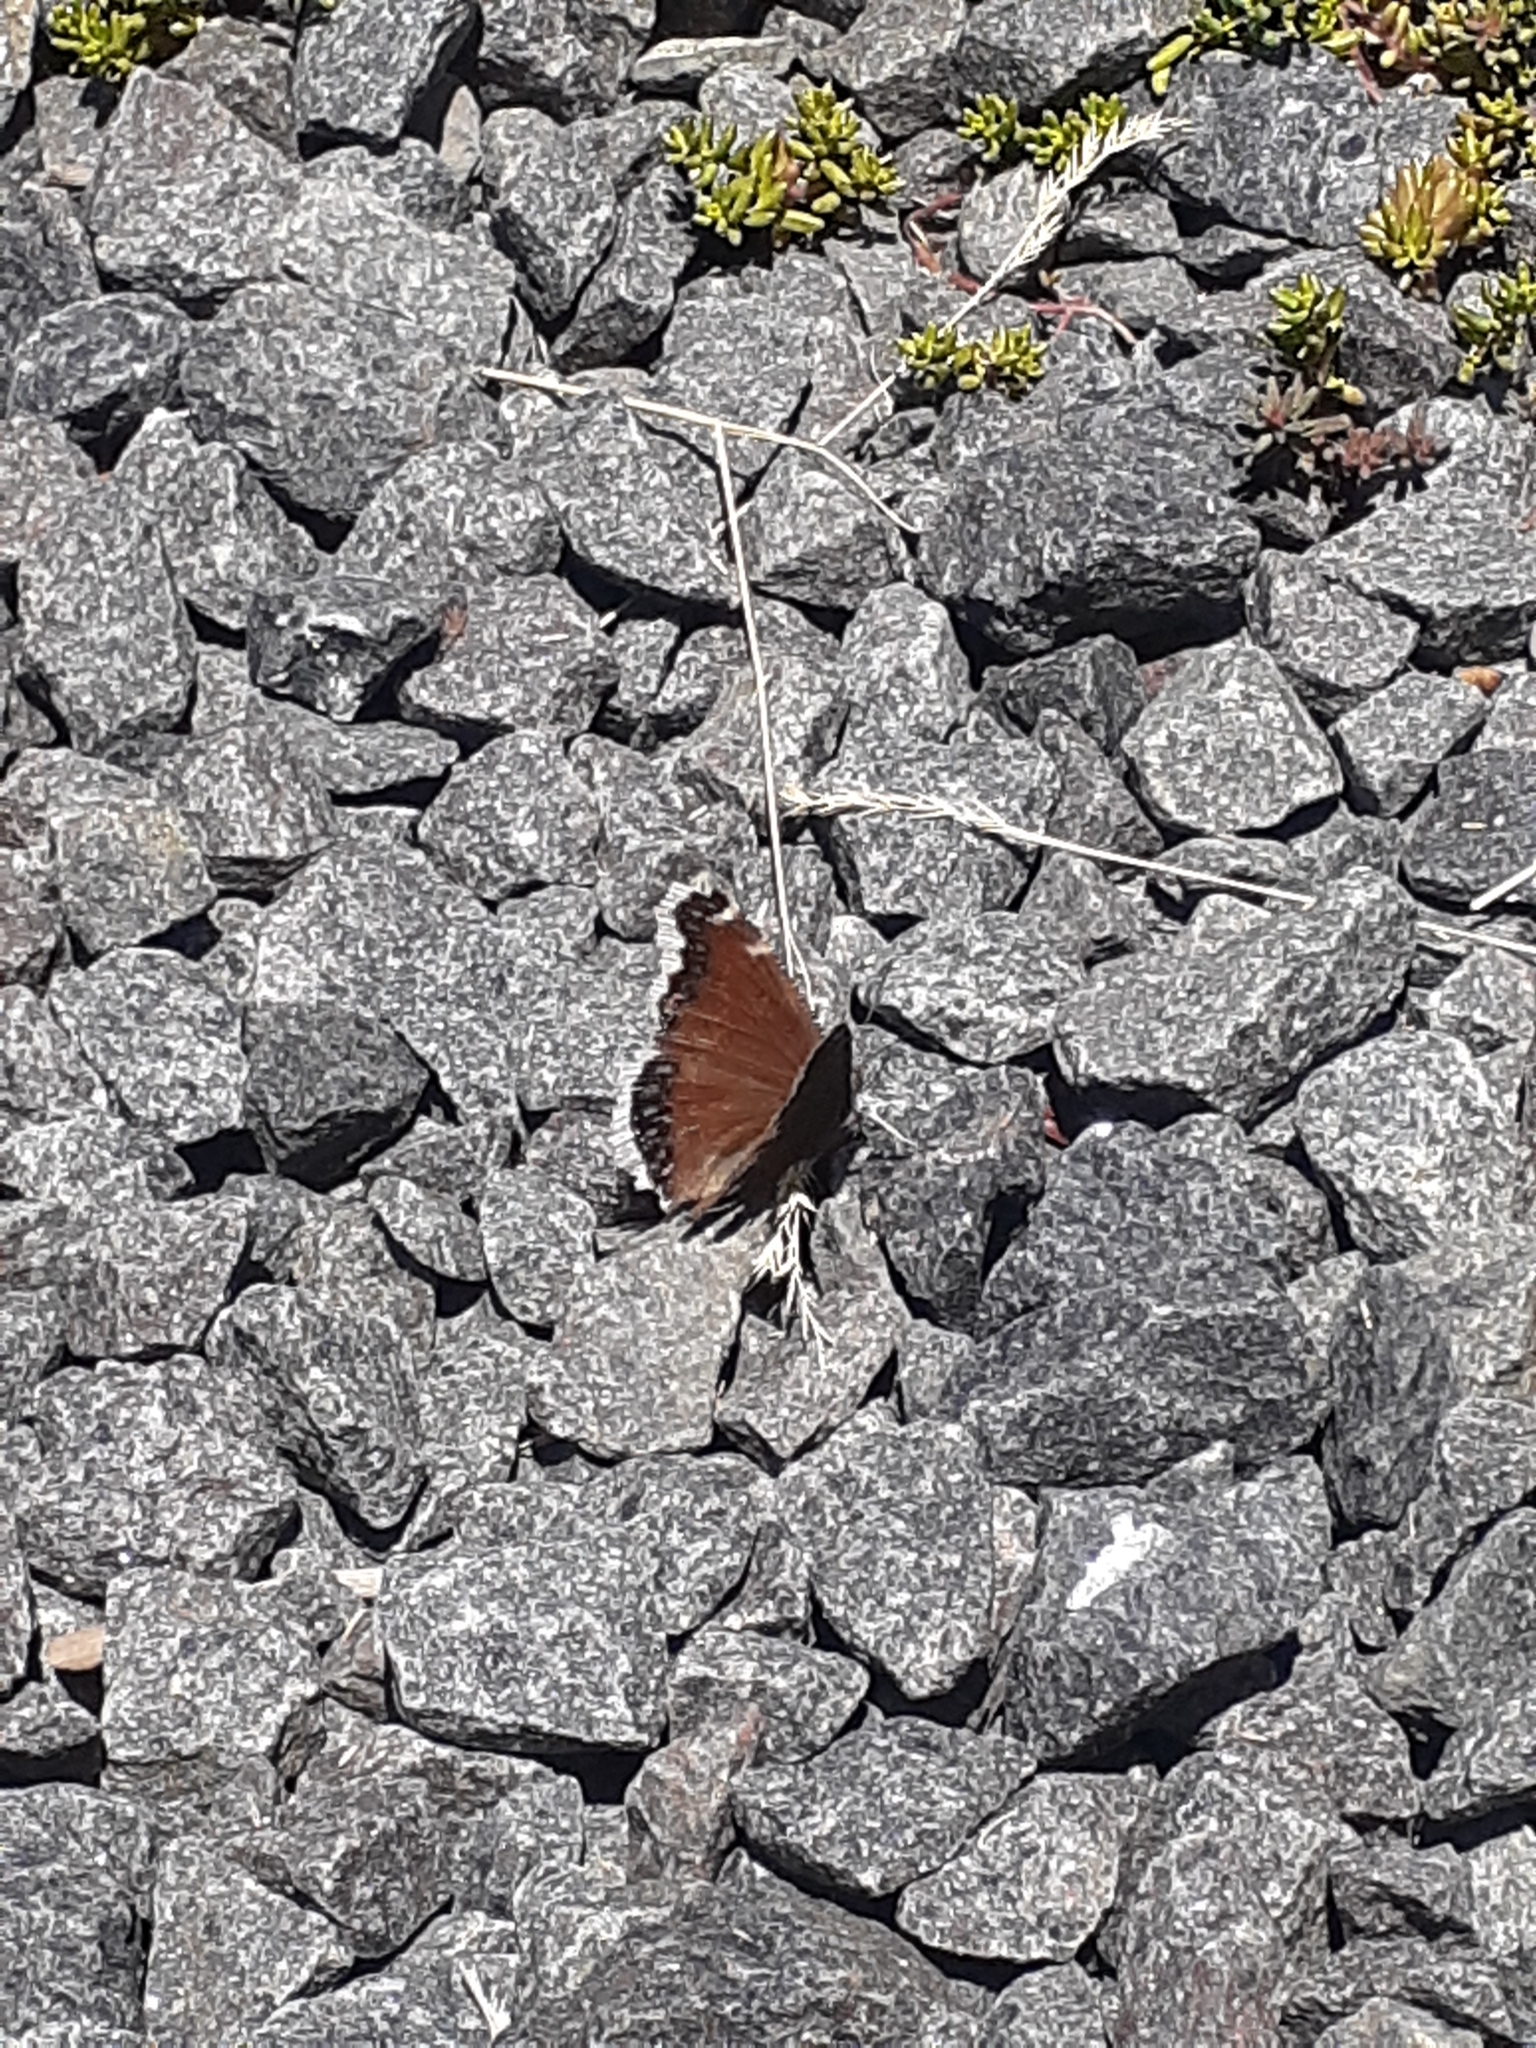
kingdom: Animalia
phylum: Arthropoda
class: Insecta
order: Lepidoptera
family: Nymphalidae
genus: Nymphalis
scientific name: Nymphalis antiopa
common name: Camberwell beauty
